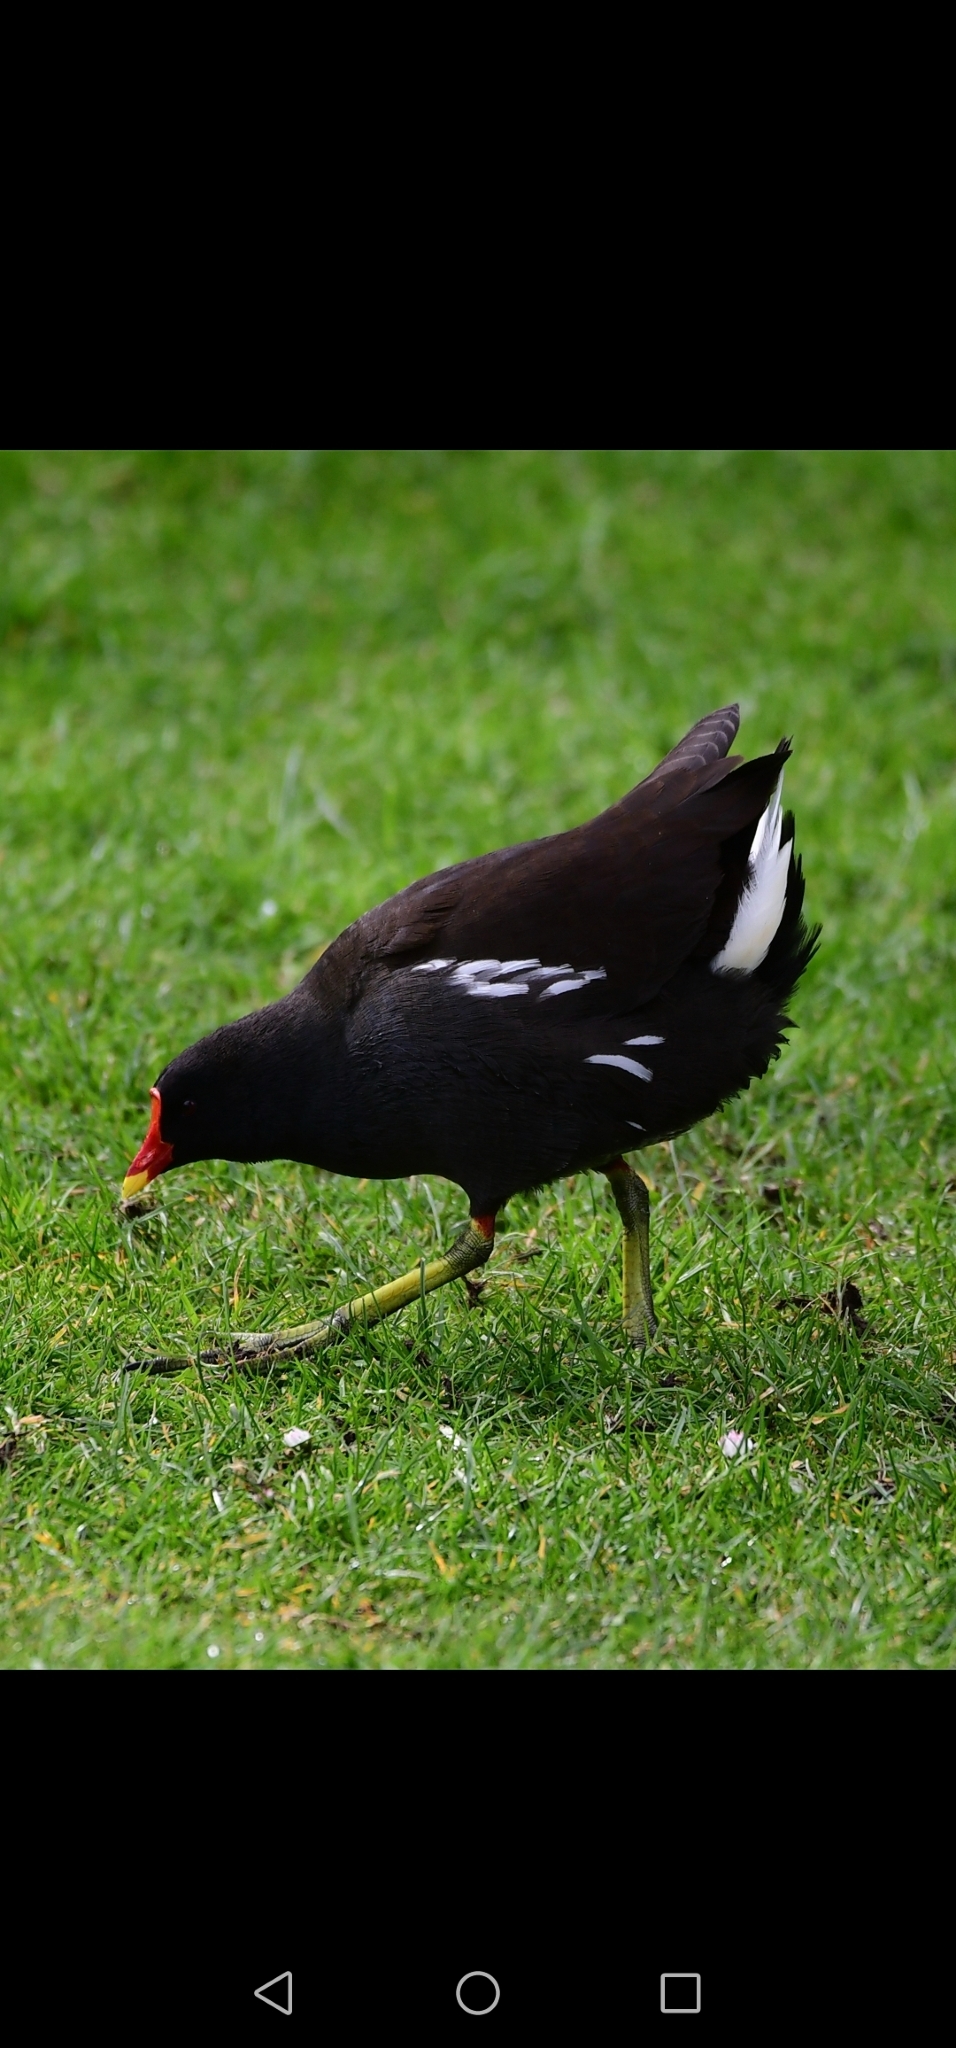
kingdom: Animalia
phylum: Chordata
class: Aves
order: Gruiformes
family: Rallidae
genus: Gallinula
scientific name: Gallinula chloropus
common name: Common moorhen
